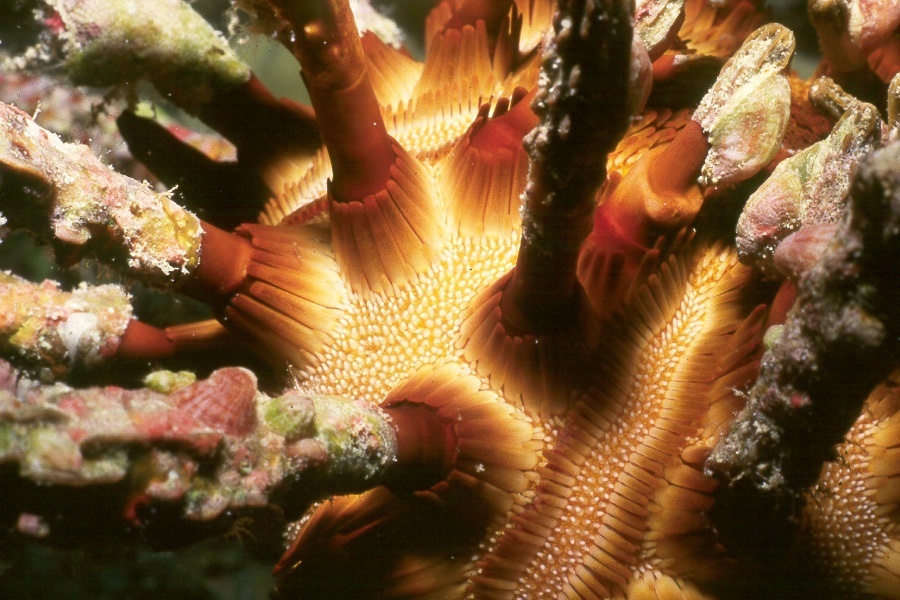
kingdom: Animalia
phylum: Echinodermata
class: Echinoidea
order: Cidaroida
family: Cidaridae
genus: Chondrocidaris
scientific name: Chondrocidaris gigantea
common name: Blade-tipped tiara-urchin
